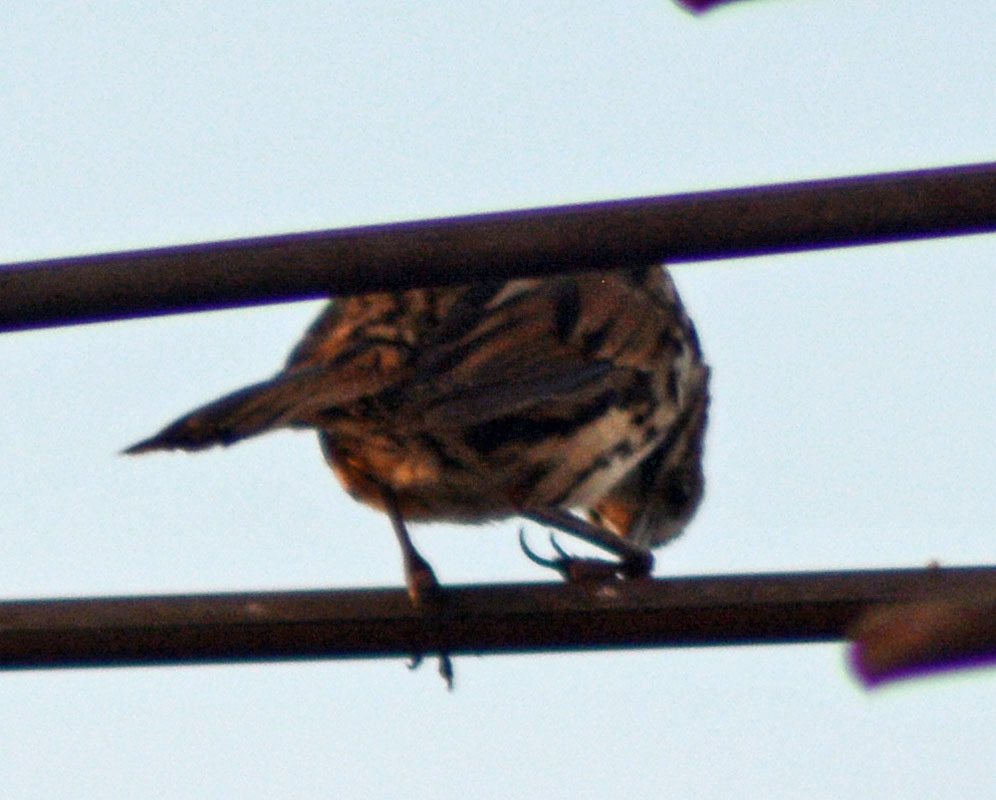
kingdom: Animalia
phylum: Chordata
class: Aves
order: Passeriformes
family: Passerellidae
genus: Melospiza
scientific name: Melospiza melodia
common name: Song sparrow
